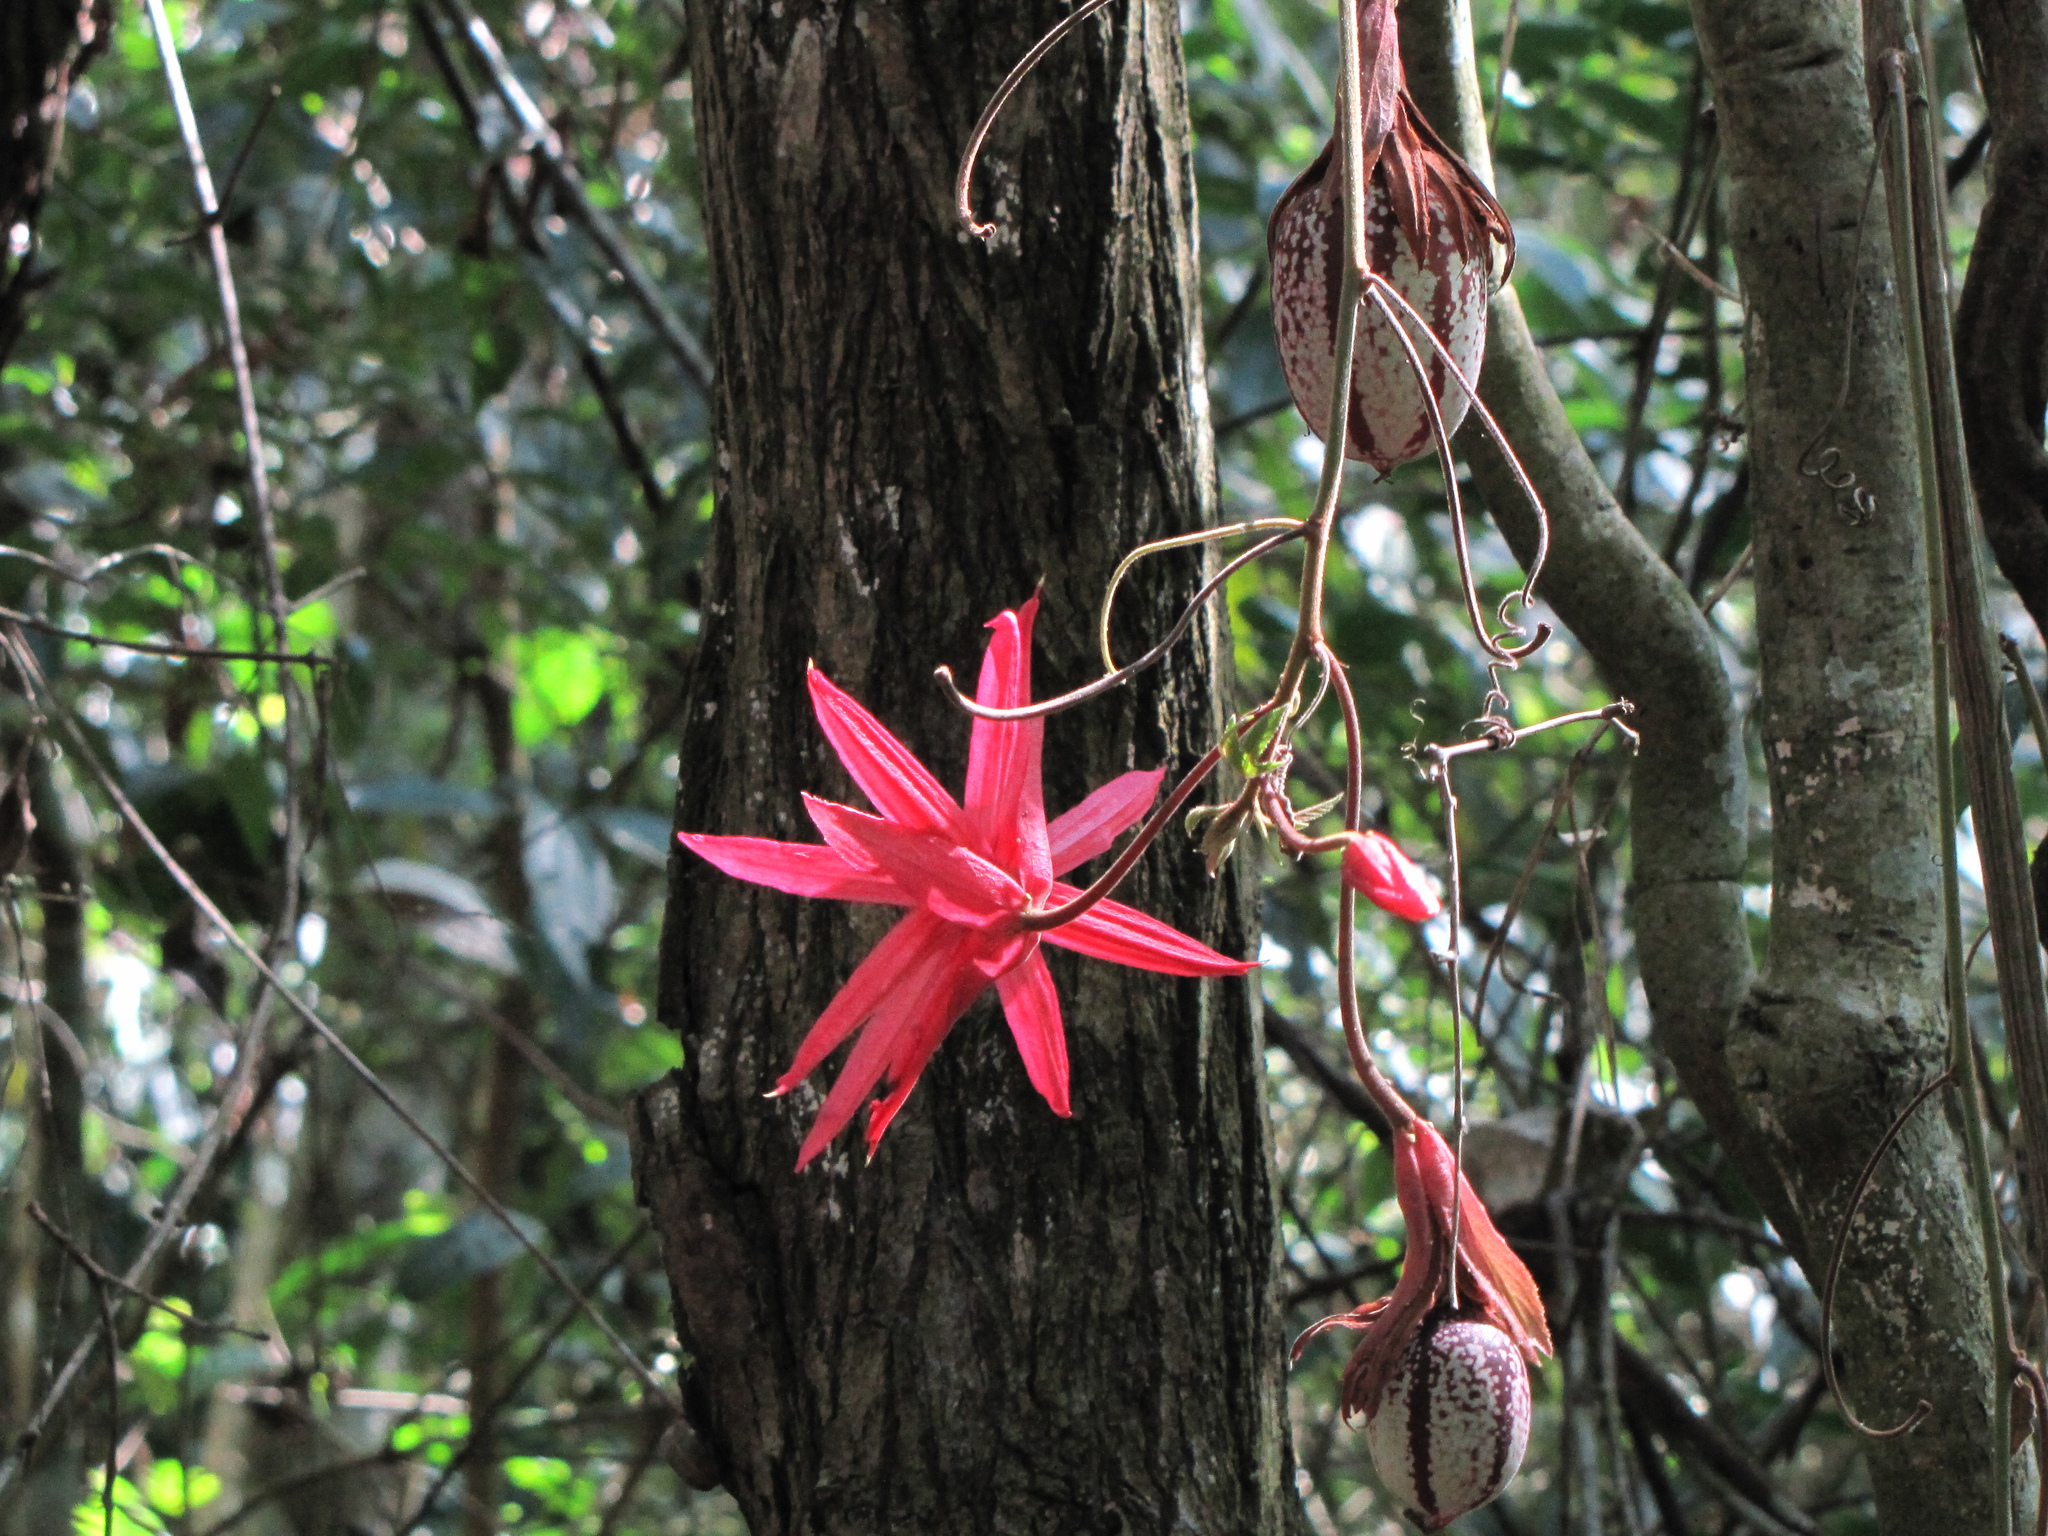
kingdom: Plantae
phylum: Tracheophyta
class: Magnoliopsida
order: Malpighiales
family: Passifloraceae
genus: Passiflora
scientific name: Passiflora speciosa
